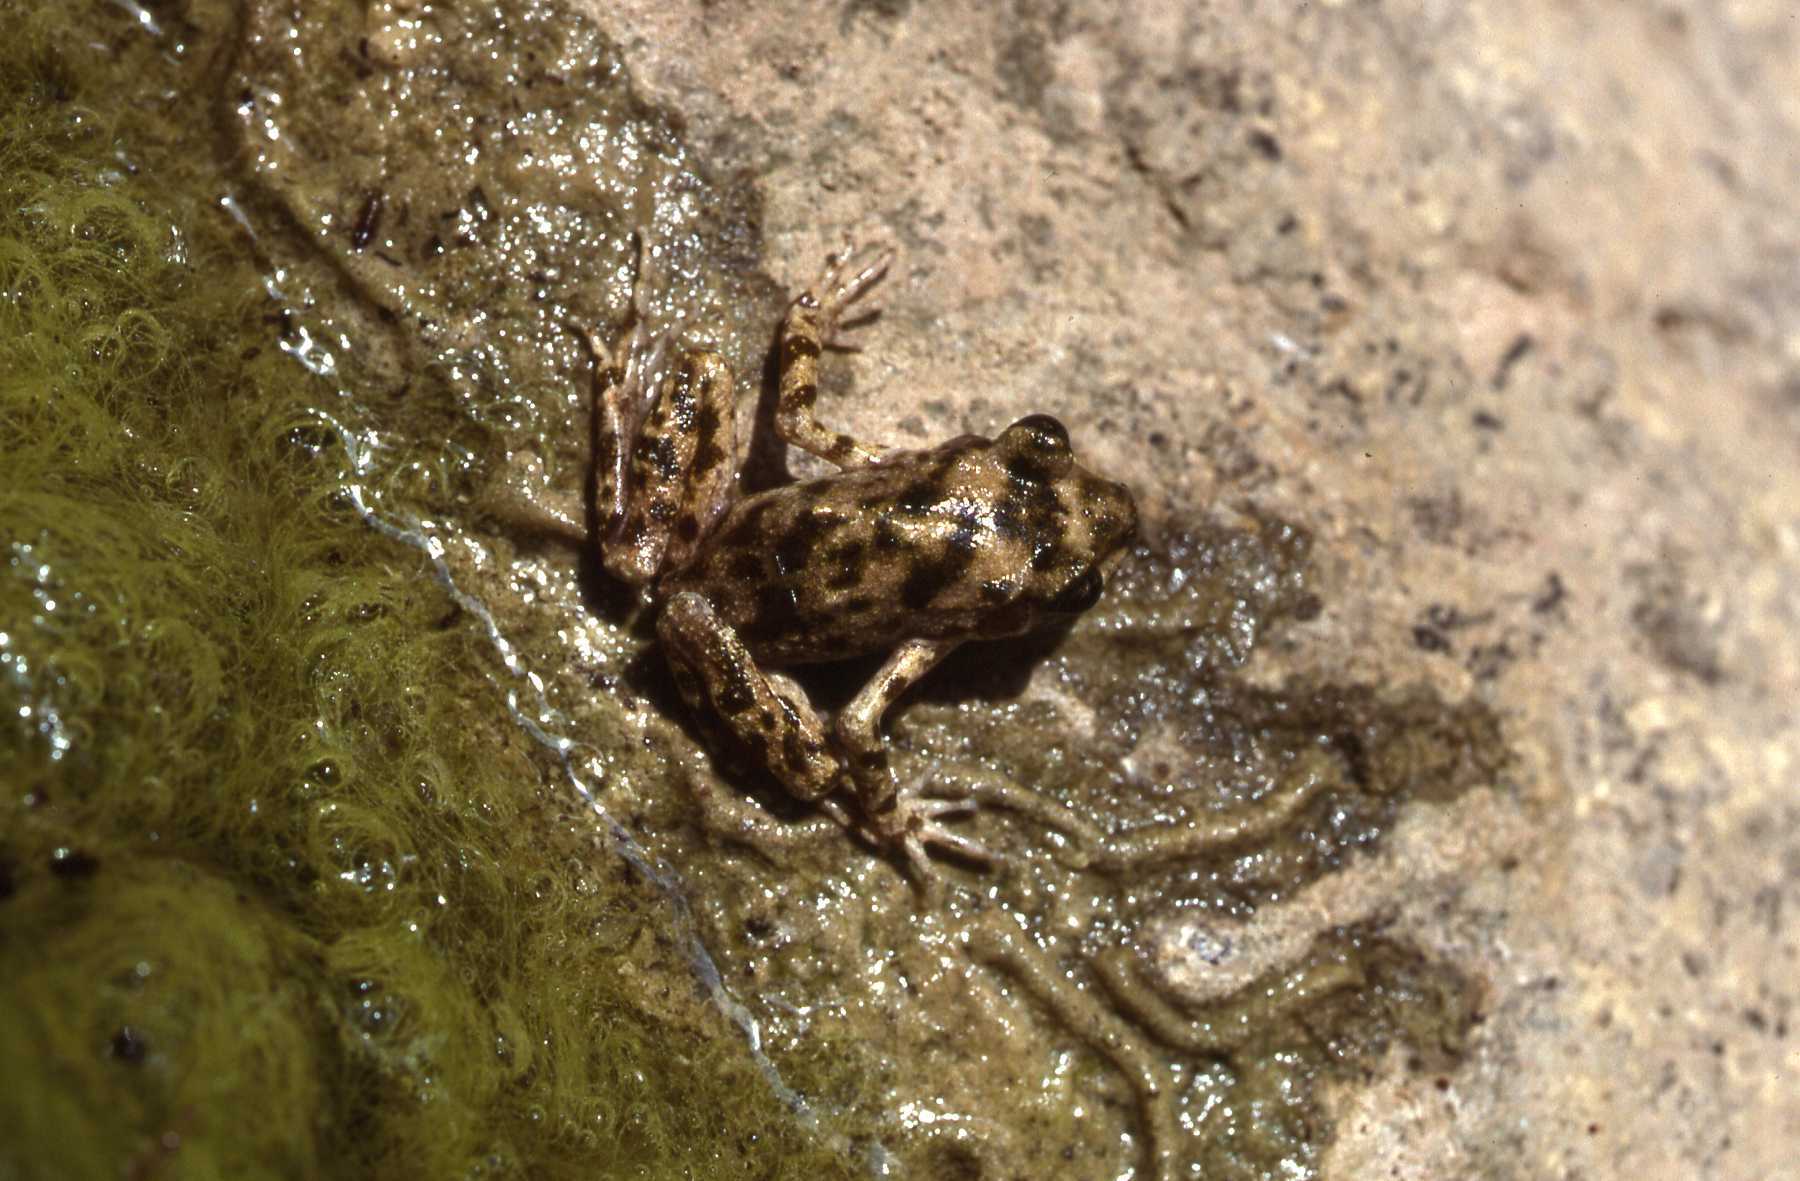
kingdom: Animalia
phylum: Chordata
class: Amphibia
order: Anura
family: Alytidae
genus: Alytes
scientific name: Alytes muletensis
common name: Majorca midwife toad
